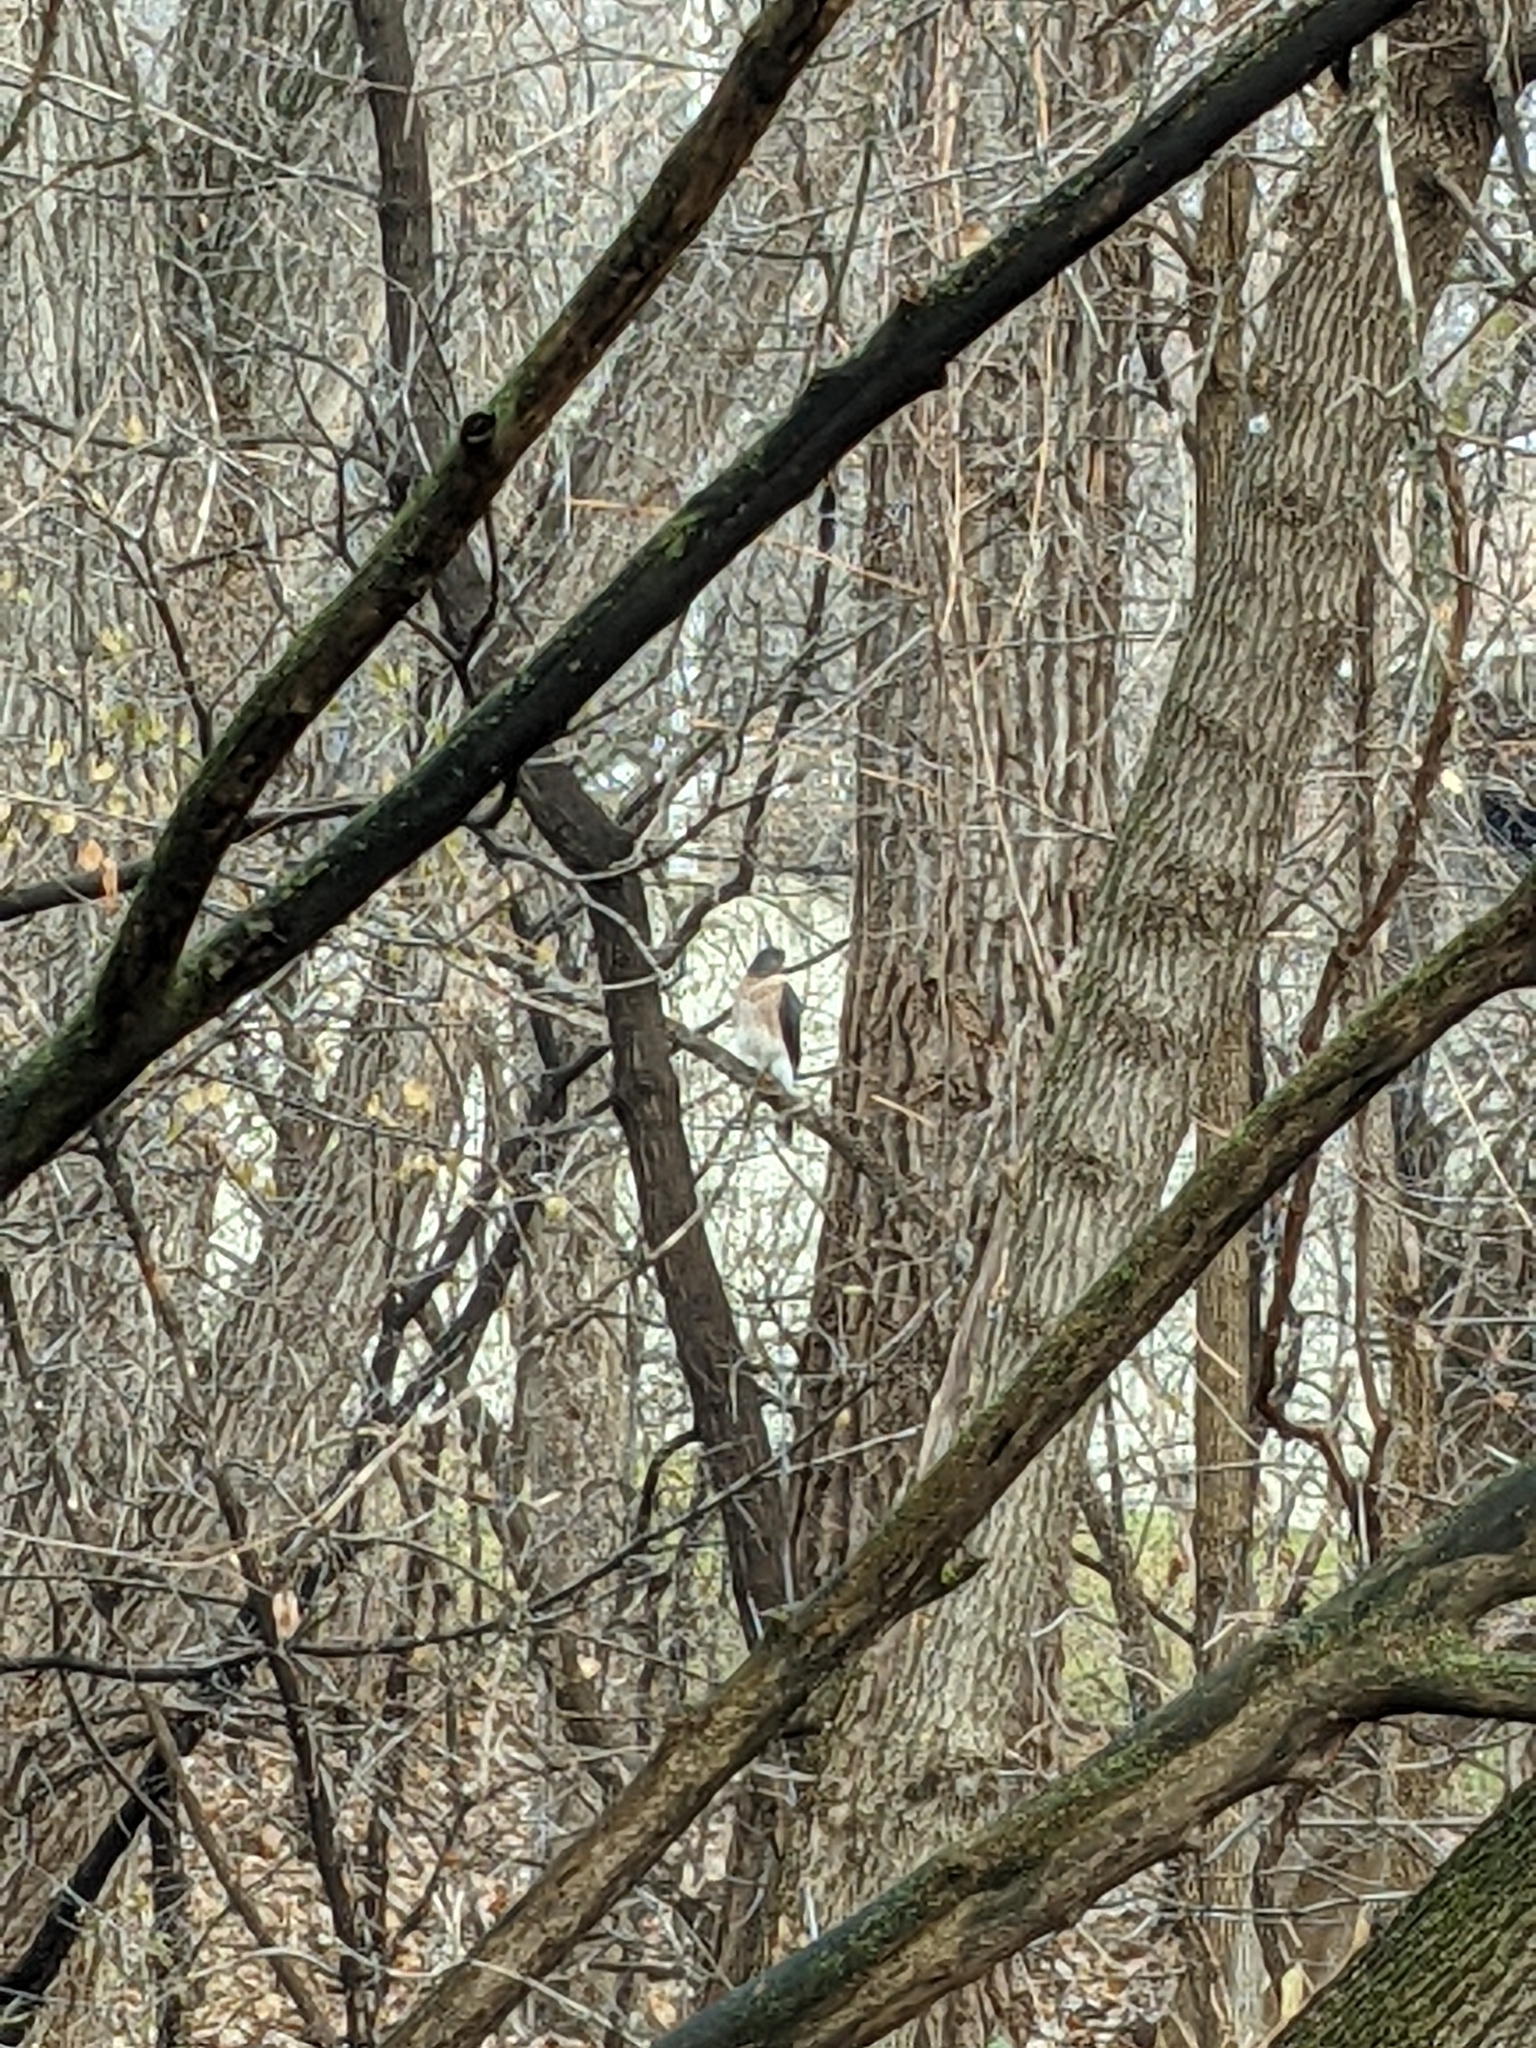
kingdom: Animalia
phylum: Chordata
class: Aves
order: Accipitriformes
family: Accipitridae
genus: Accipiter
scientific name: Accipiter
